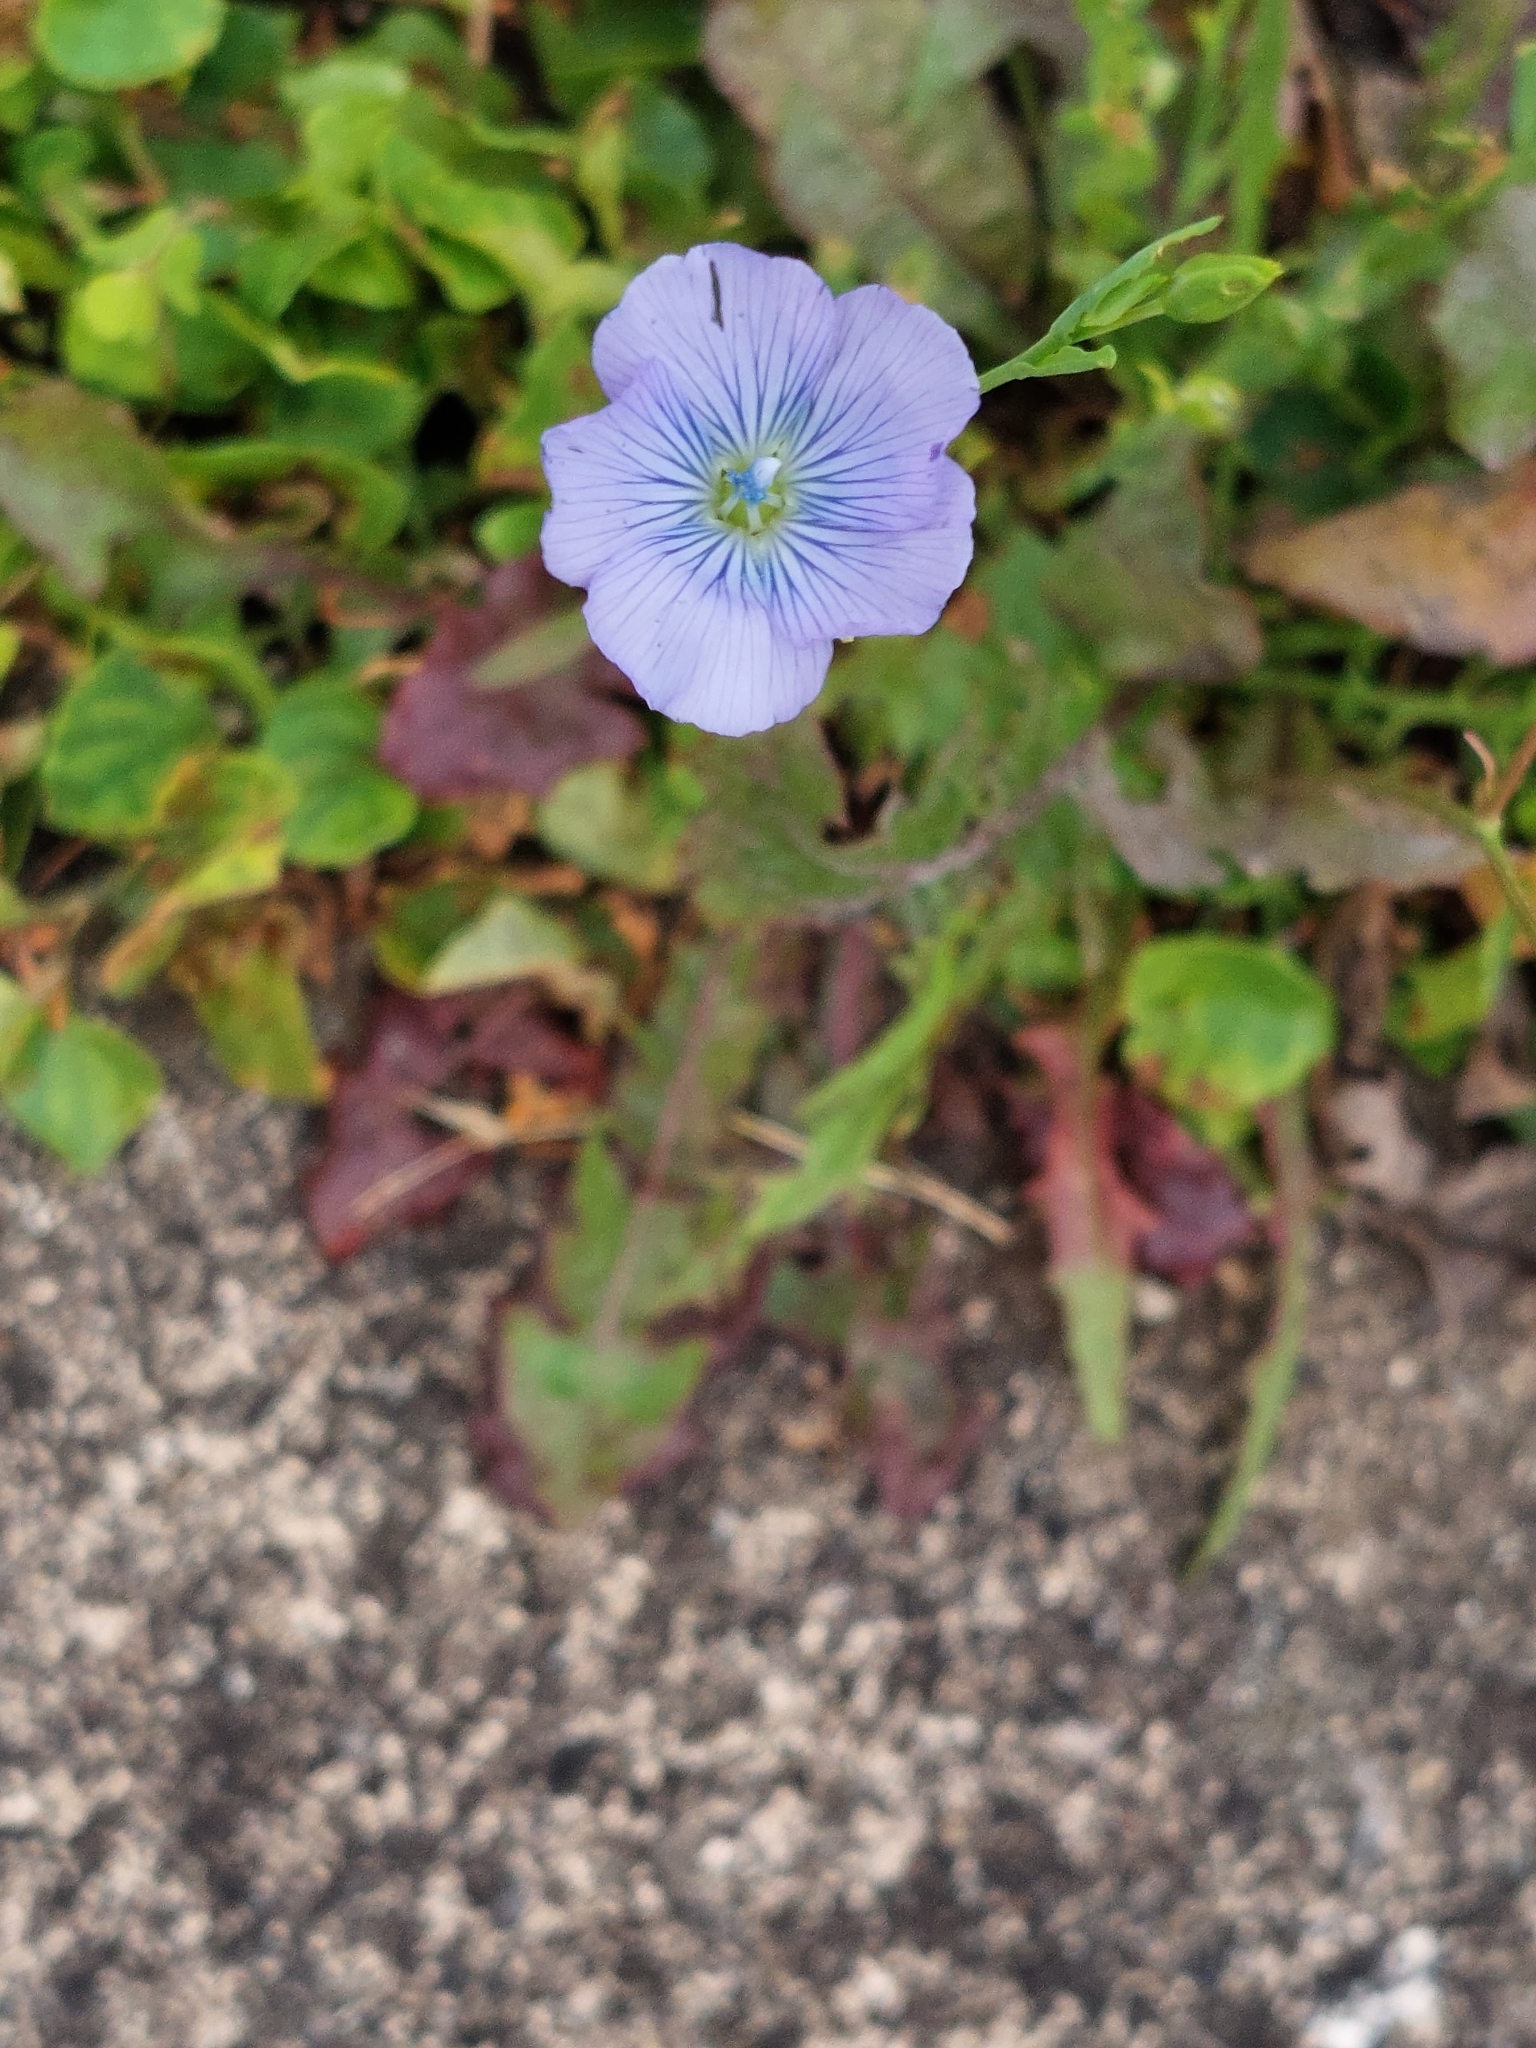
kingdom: Plantae
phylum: Tracheophyta
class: Magnoliopsida
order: Malpighiales
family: Linaceae
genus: Linum
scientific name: Linum usitatissimum
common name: Flax
